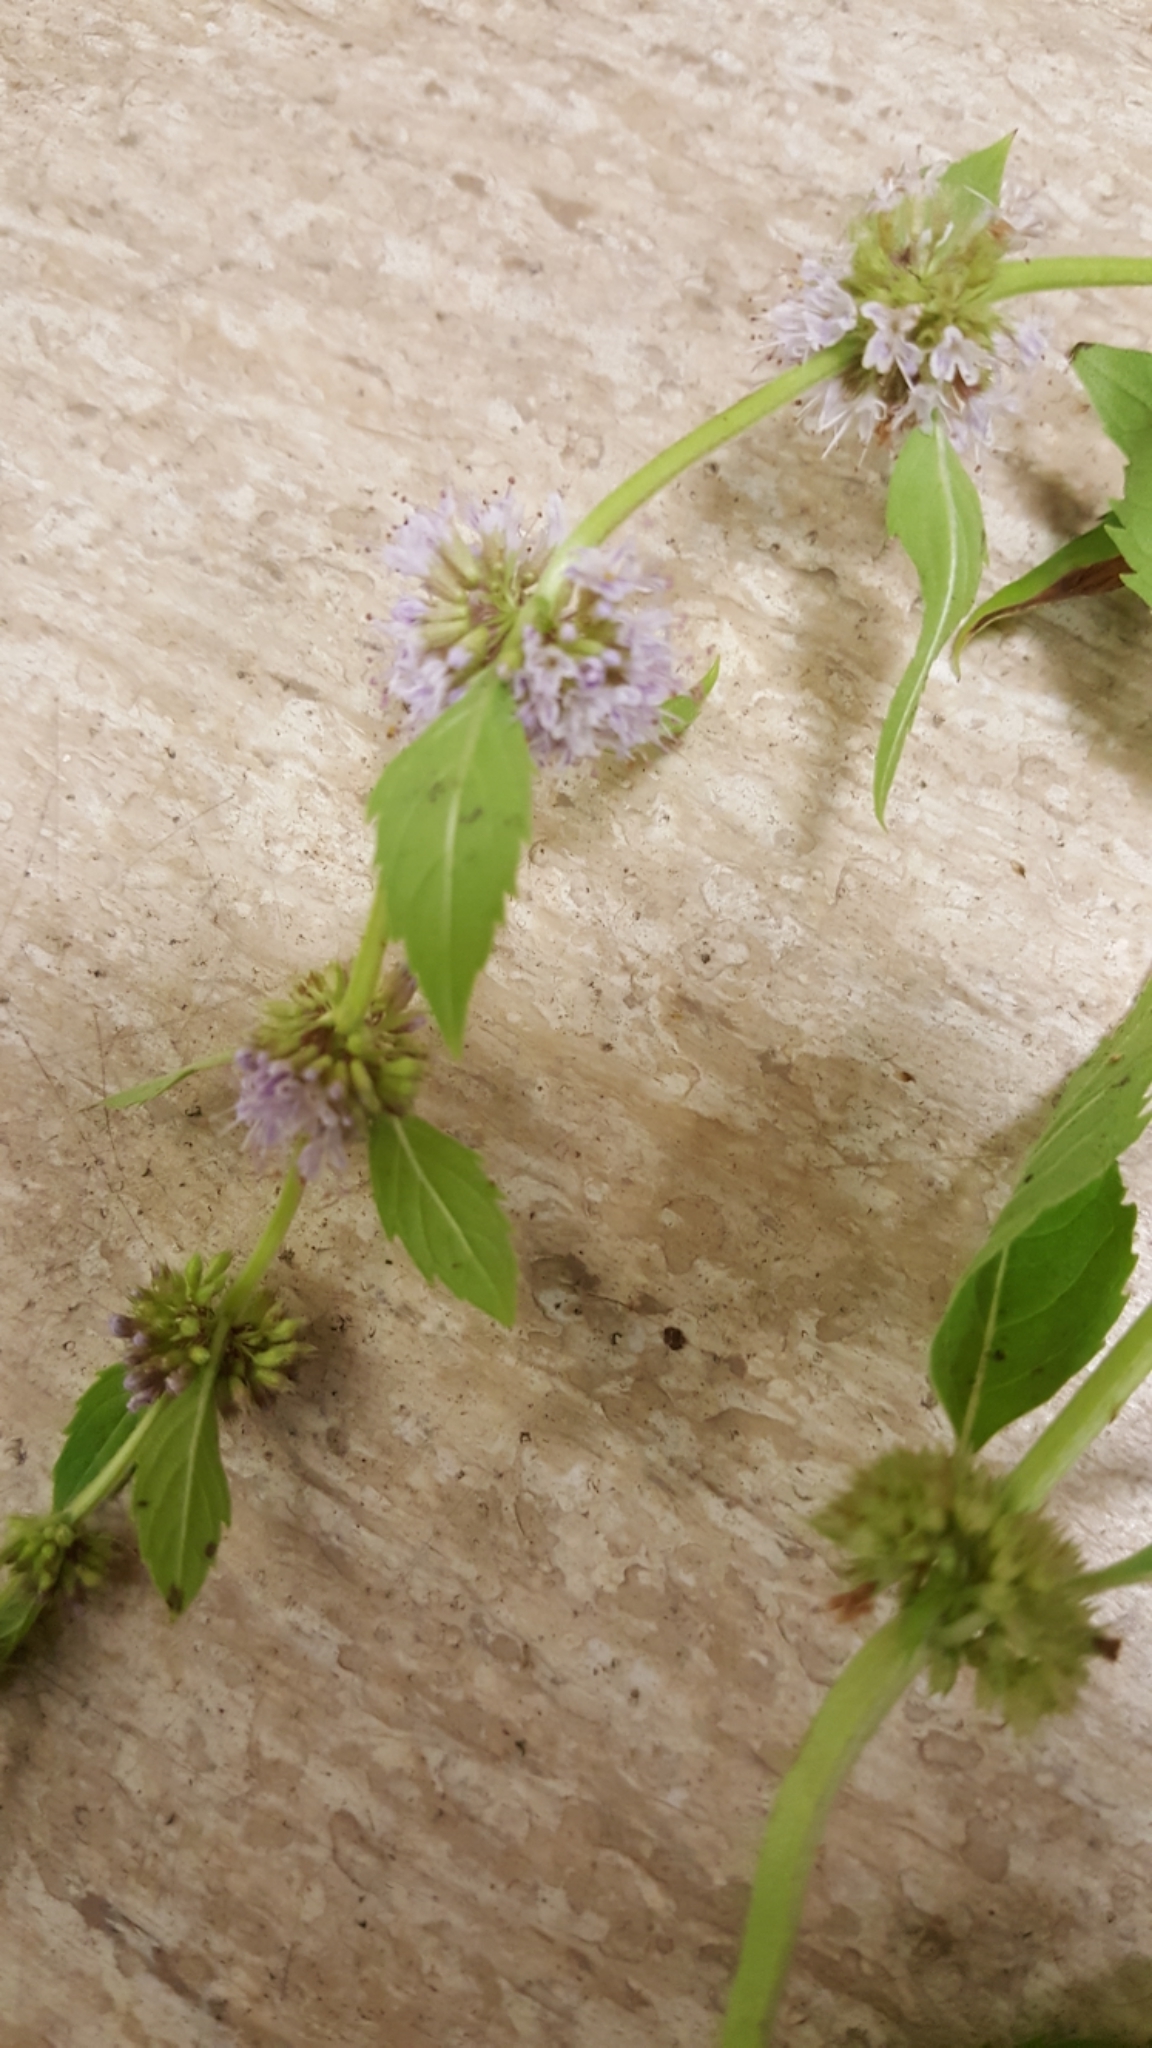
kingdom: Plantae
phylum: Tracheophyta
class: Magnoliopsida
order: Lamiales
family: Lamiaceae
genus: Mentha
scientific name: Mentha canadensis
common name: American corn mint
